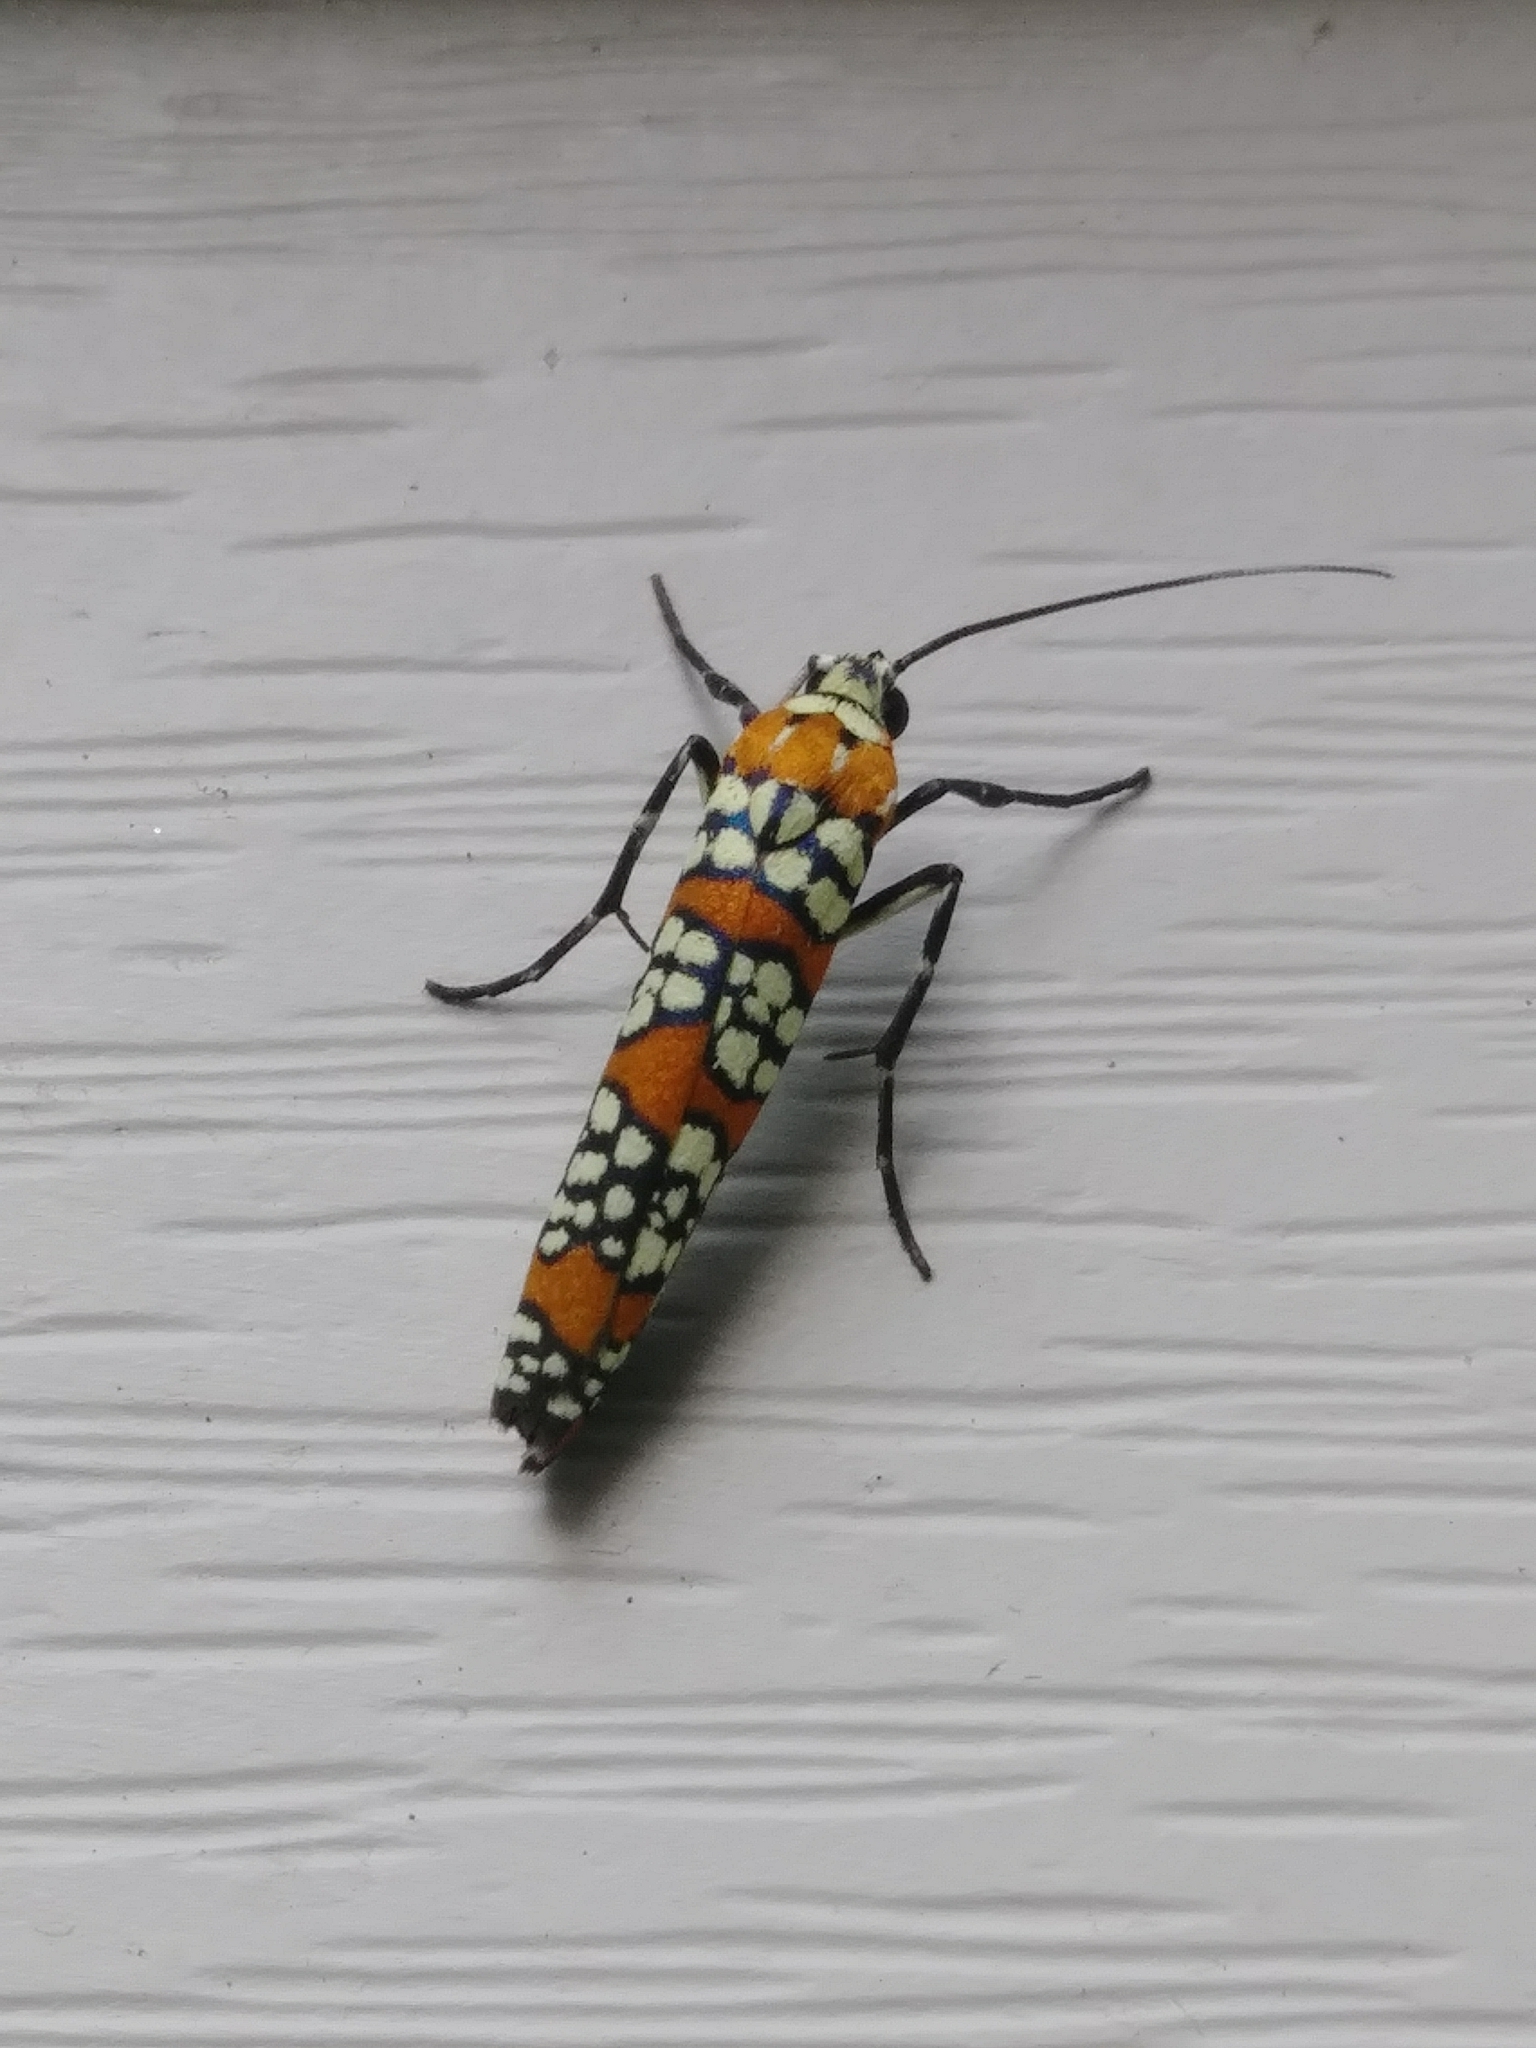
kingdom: Animalia
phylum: Arthropoda
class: Insecta
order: Lepidoptera
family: Attevidae
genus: Atteva
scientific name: Atteva punctella
